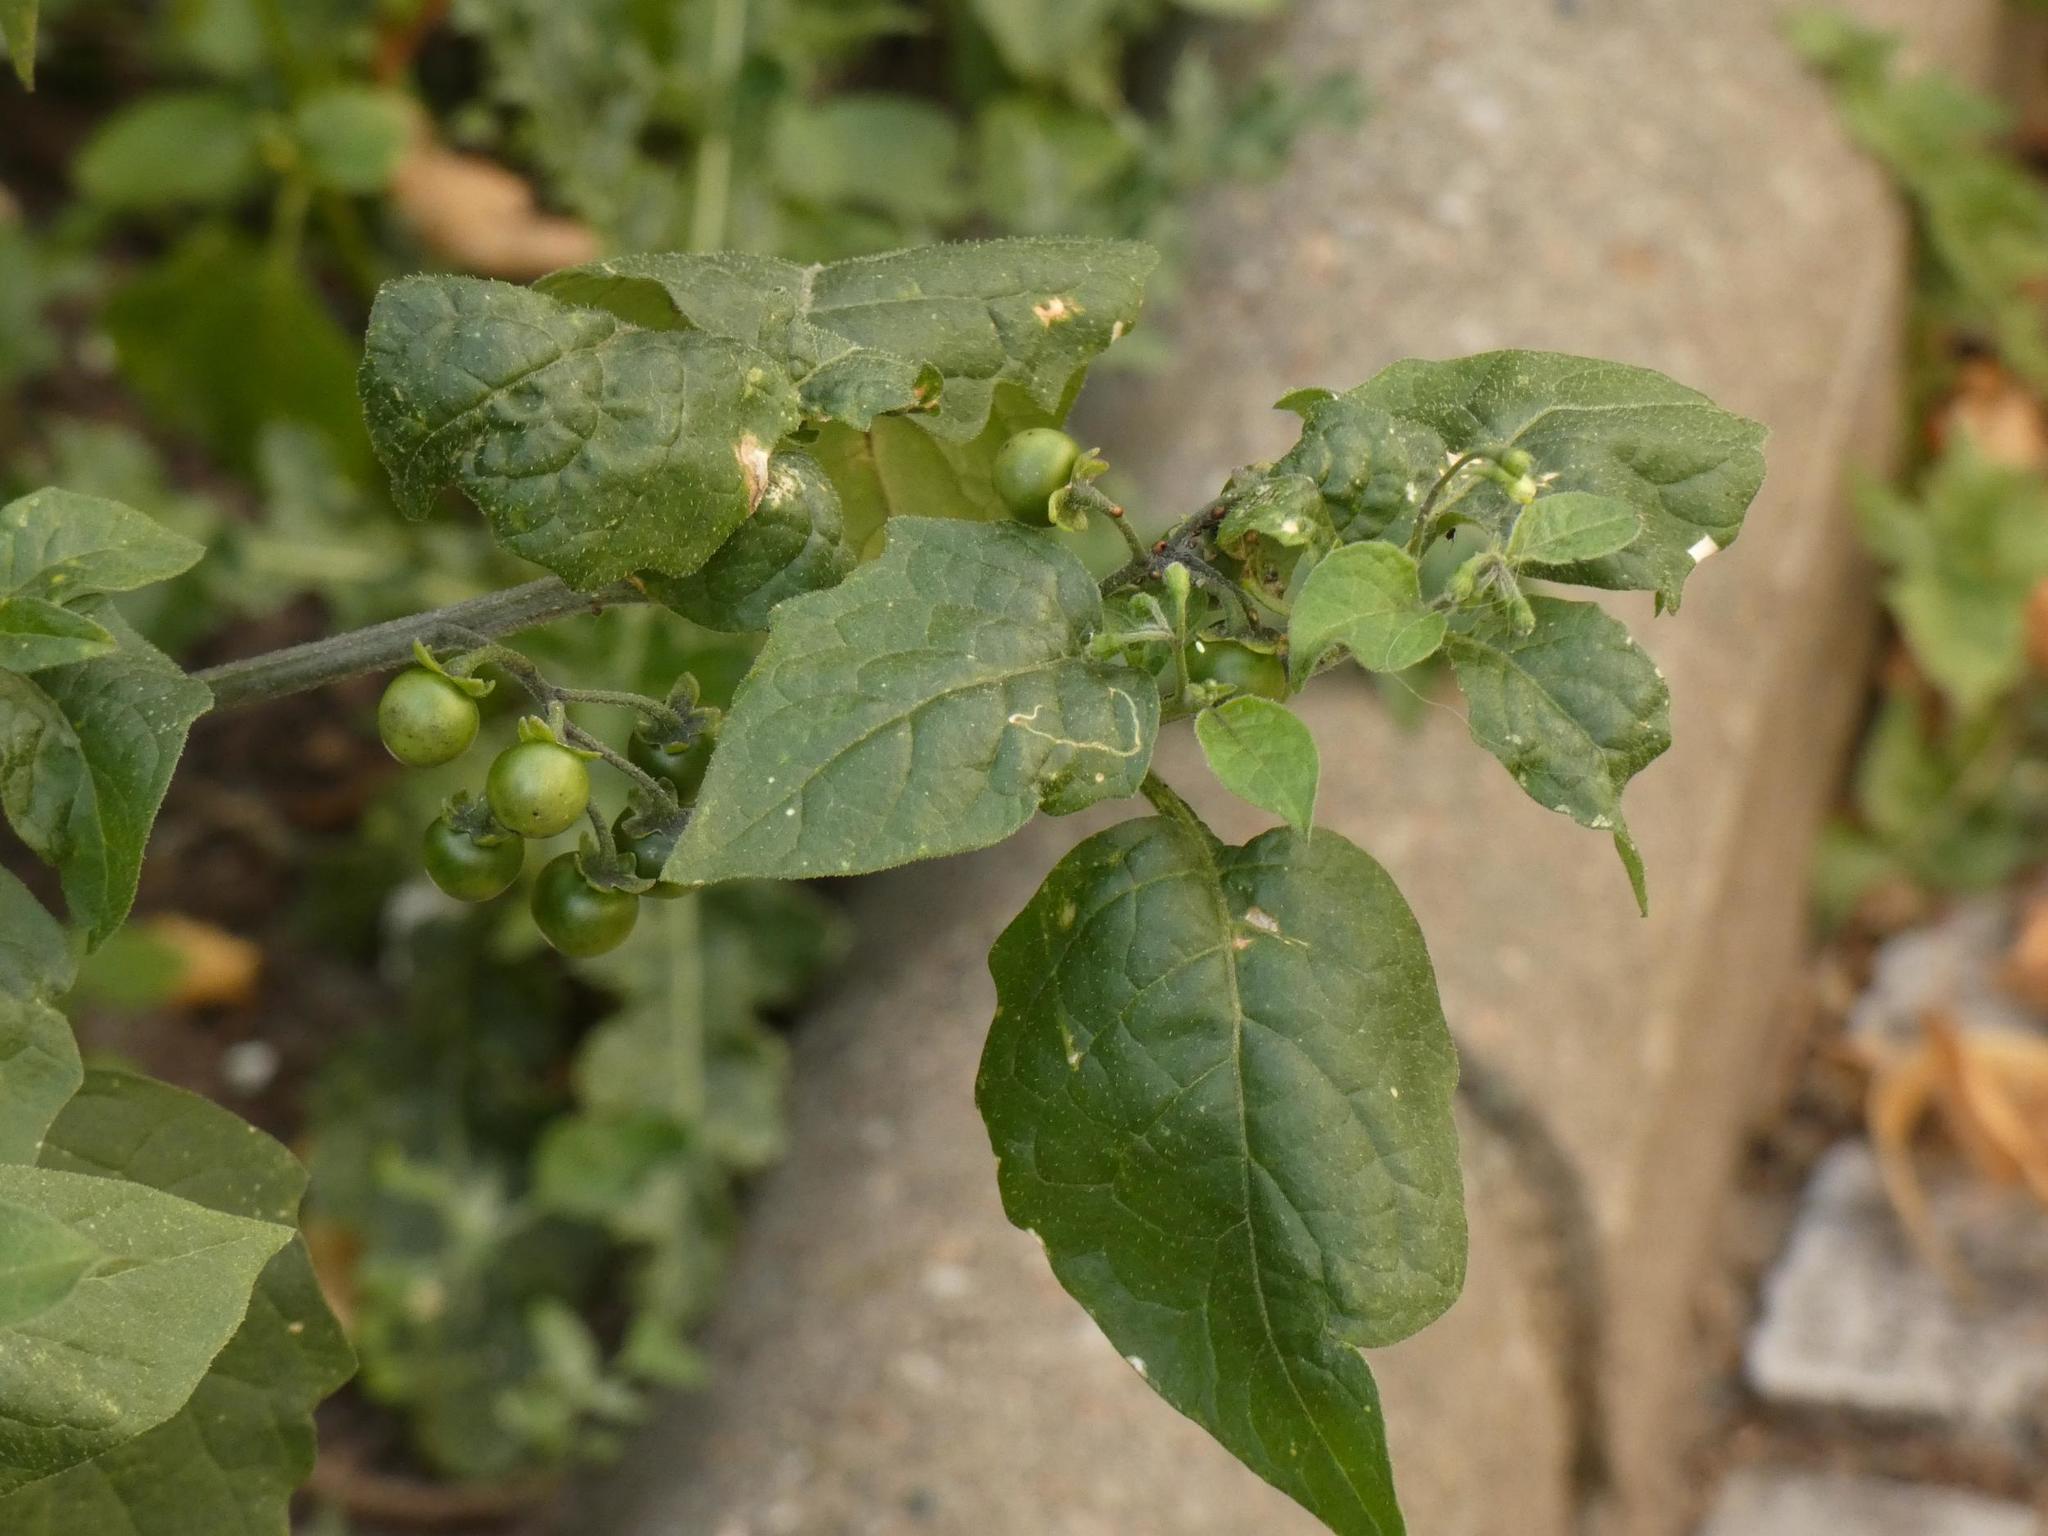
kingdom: Plantae
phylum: Tracheophyta
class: Magnoliopsida
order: Solanales
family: Solanaceae
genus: Solanum
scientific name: Solanum nigrum
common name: Black nightshade
